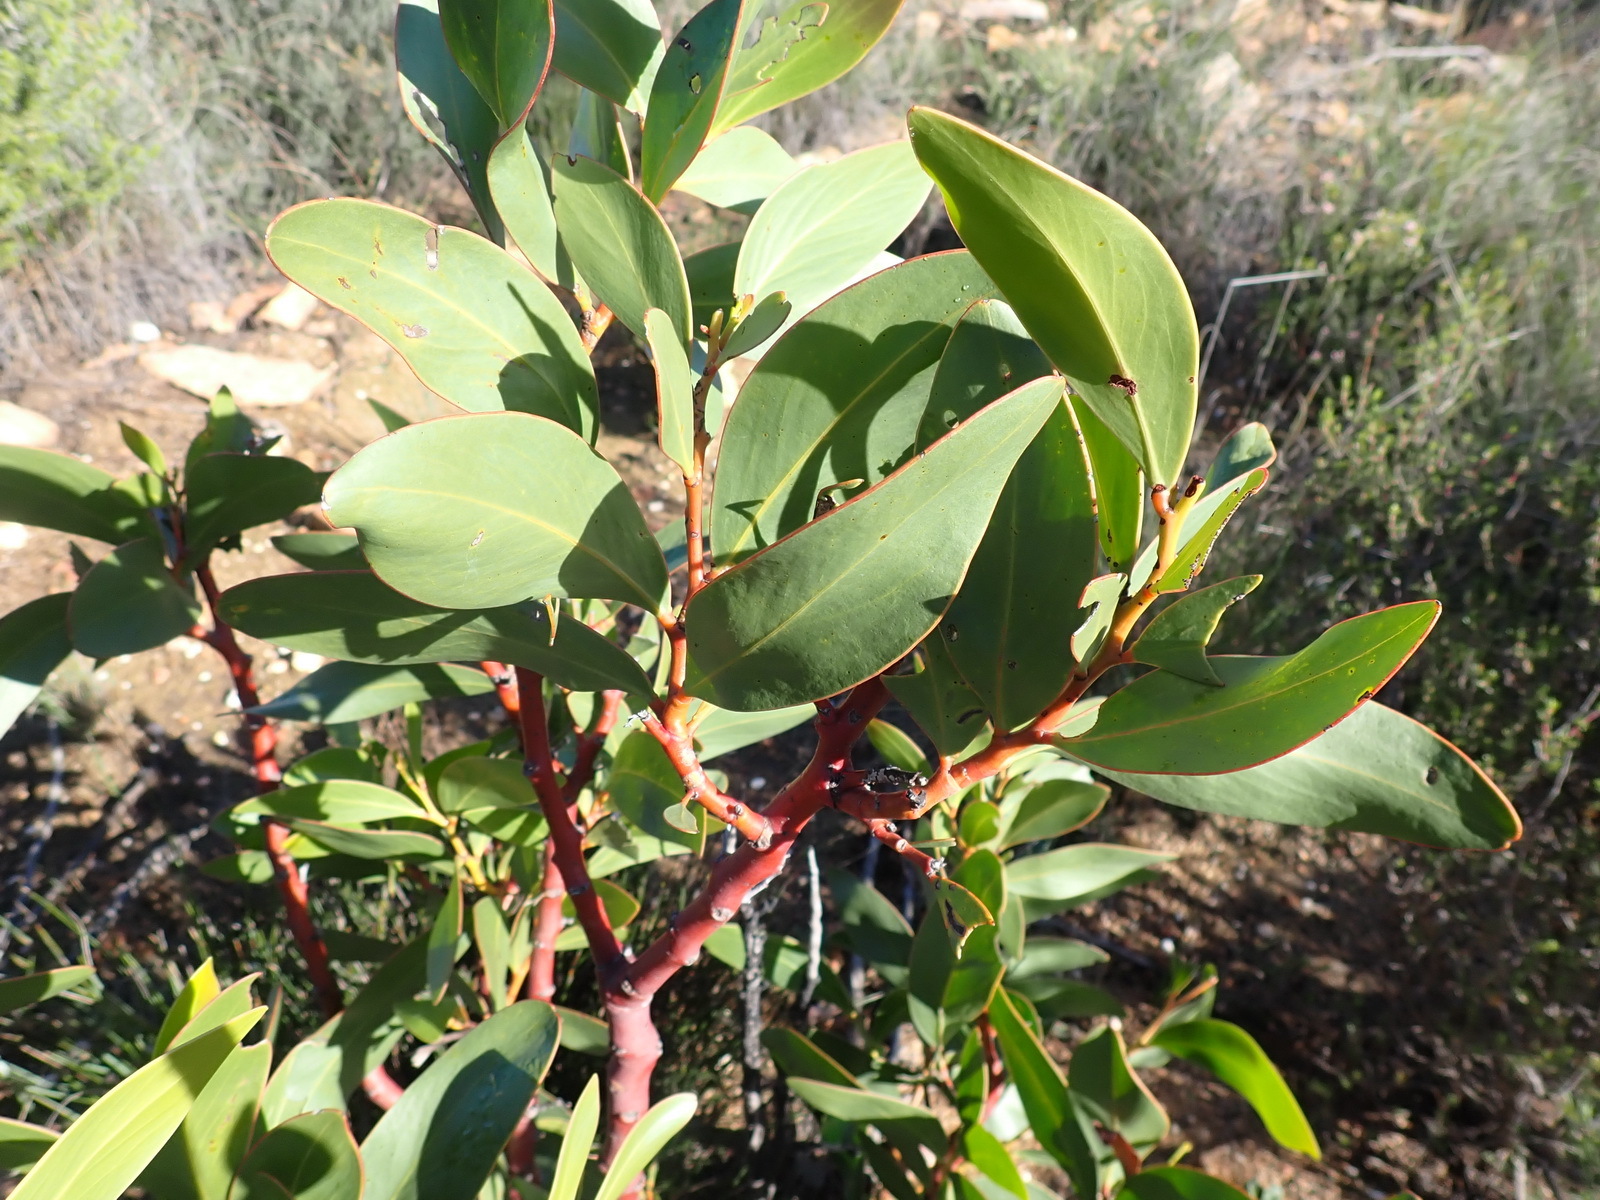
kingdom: Plantae
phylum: Tracheophyta
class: Magnoliopsida
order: Fabales
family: Fabaceae
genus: Acacia
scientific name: Acacia pycnantha
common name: Golden wattle
